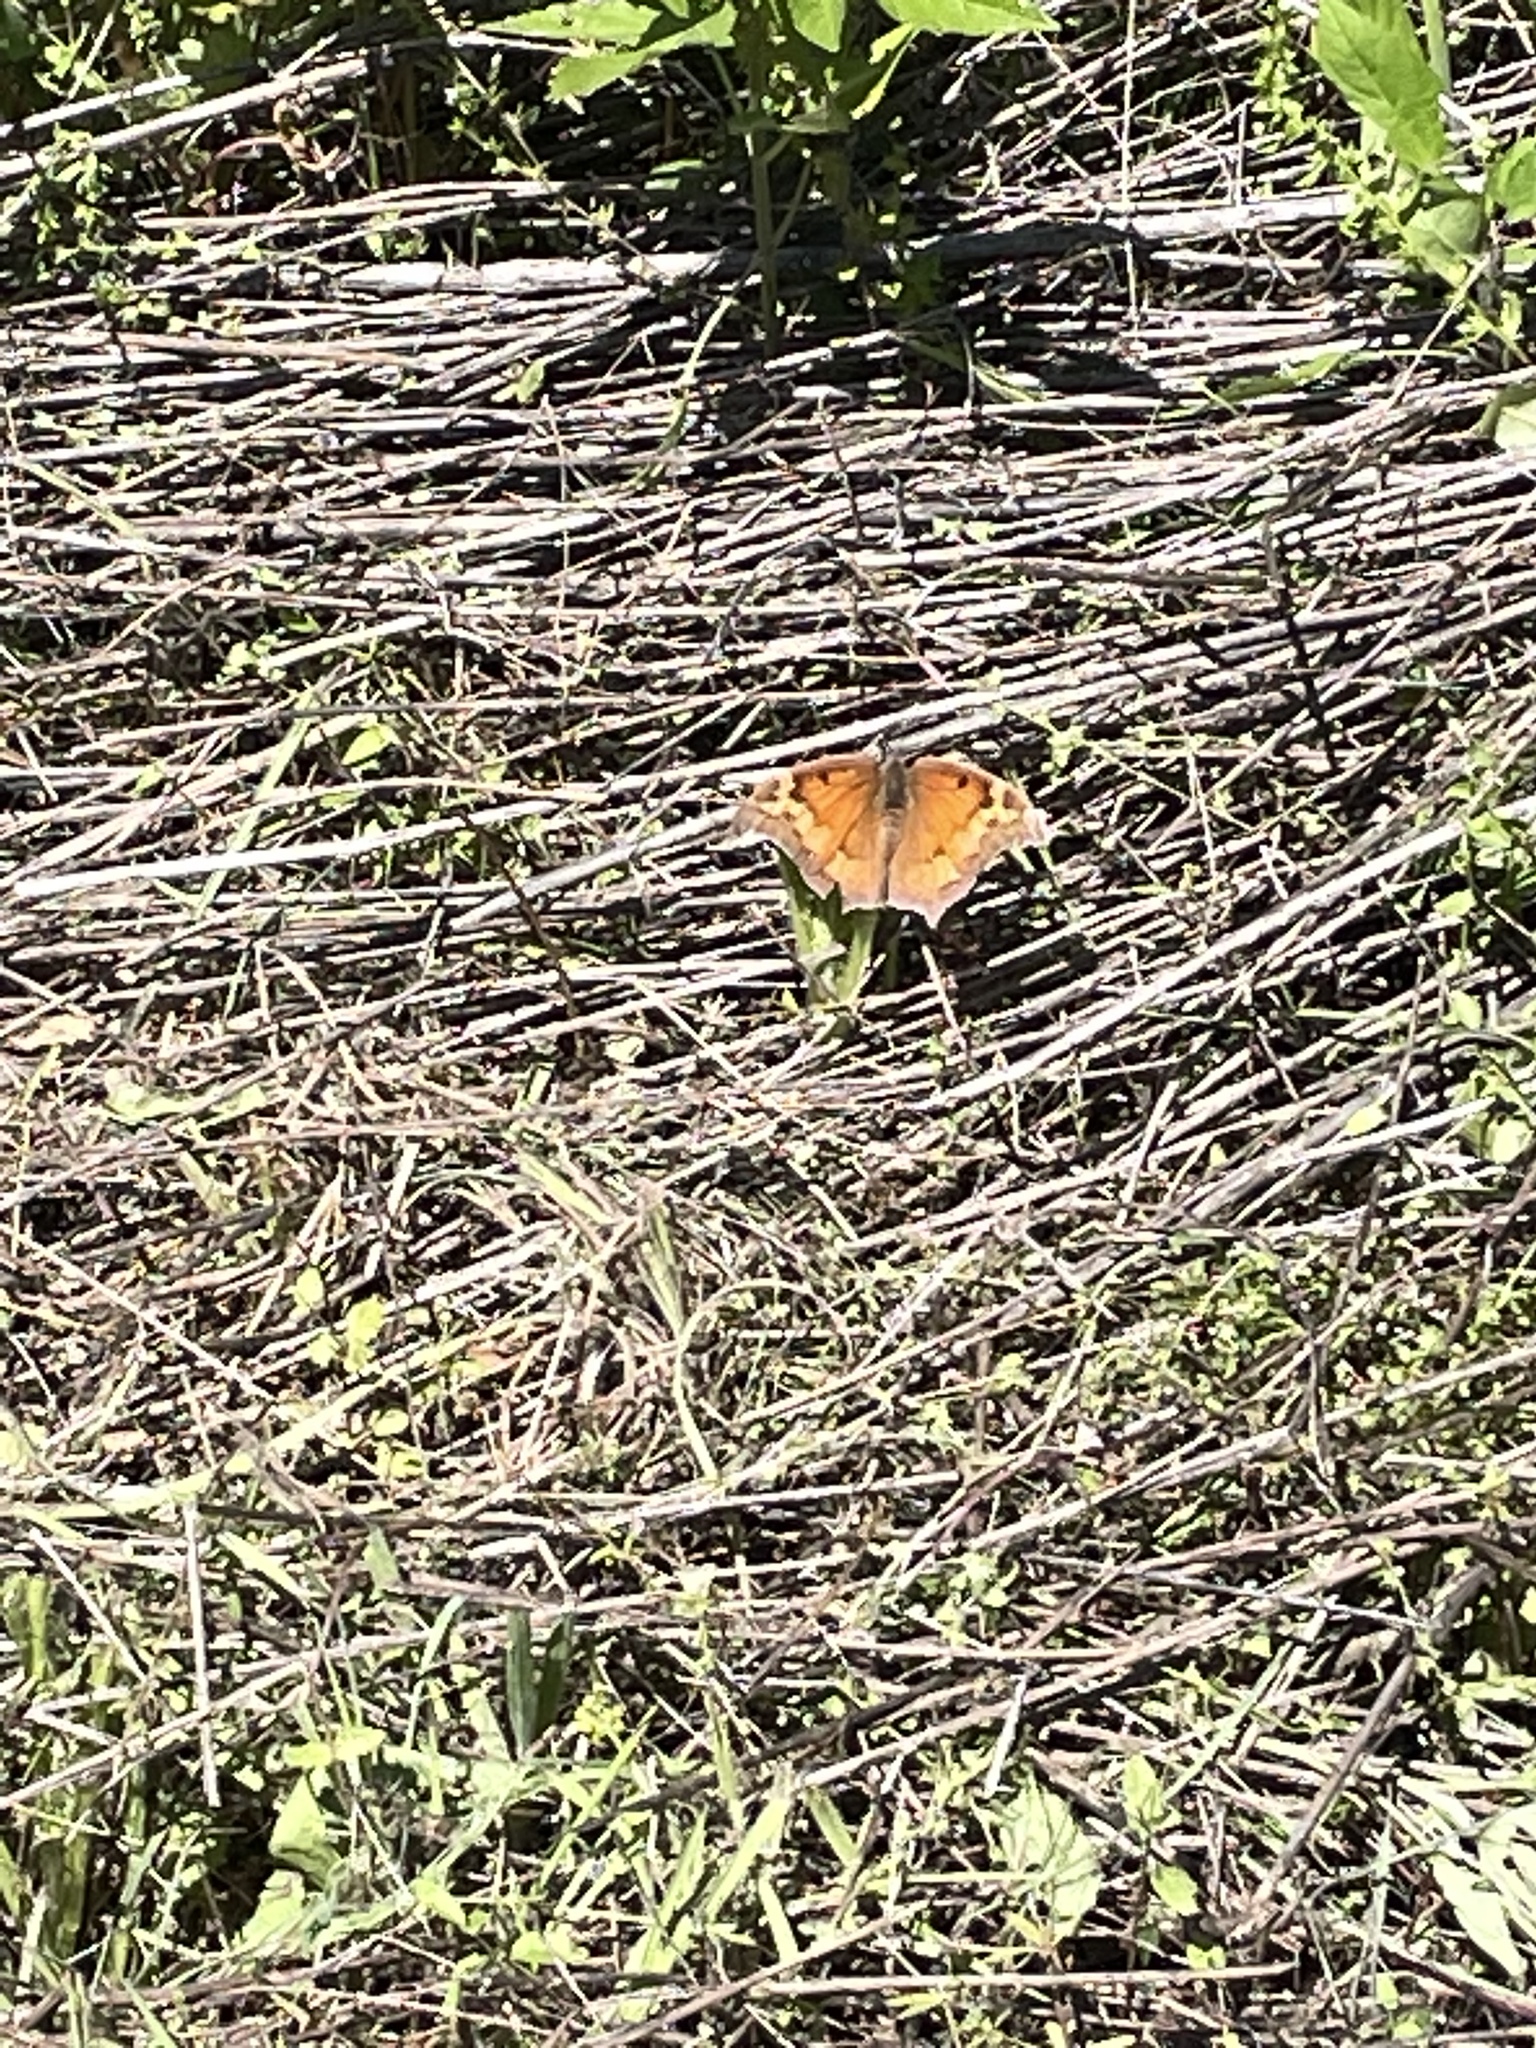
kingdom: Animalia
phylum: Arthropoda
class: Insecta
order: Lepidoptera
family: Nymphalidae
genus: Anaea
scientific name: Anaea andria
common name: Goatweed leafwing
